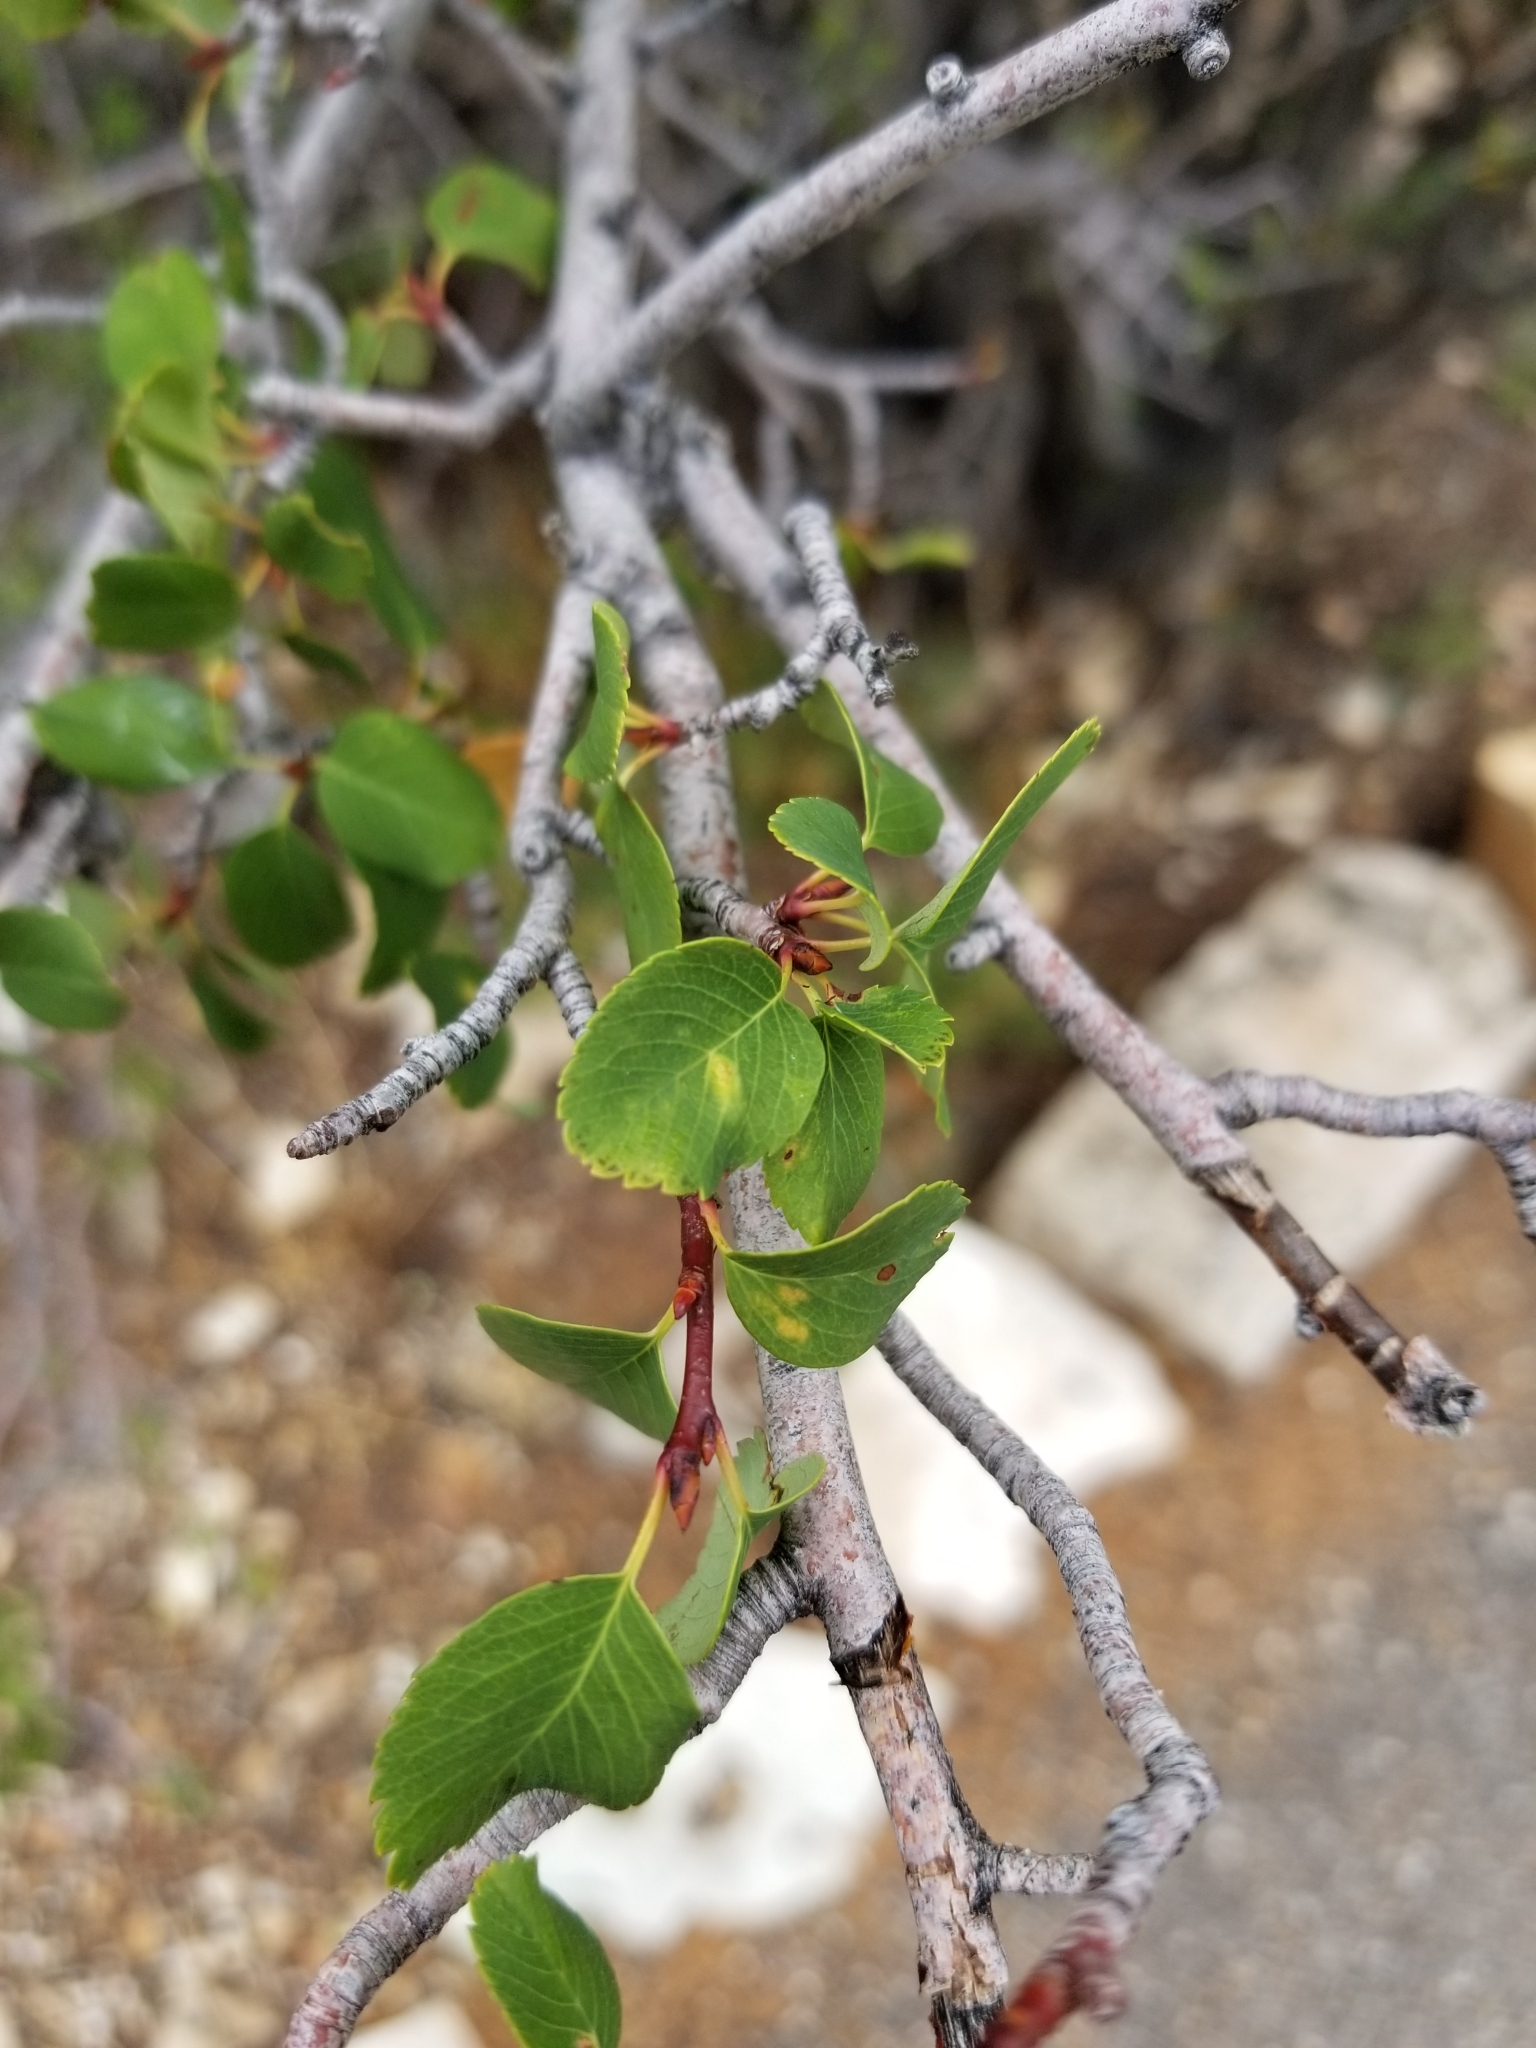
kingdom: Plantae
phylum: Tracheophyta
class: Magnoliopsida
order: Rosales
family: Rosaceae
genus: Amelanchier
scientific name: Amelanchier utahensis
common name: Utah serviceberry
